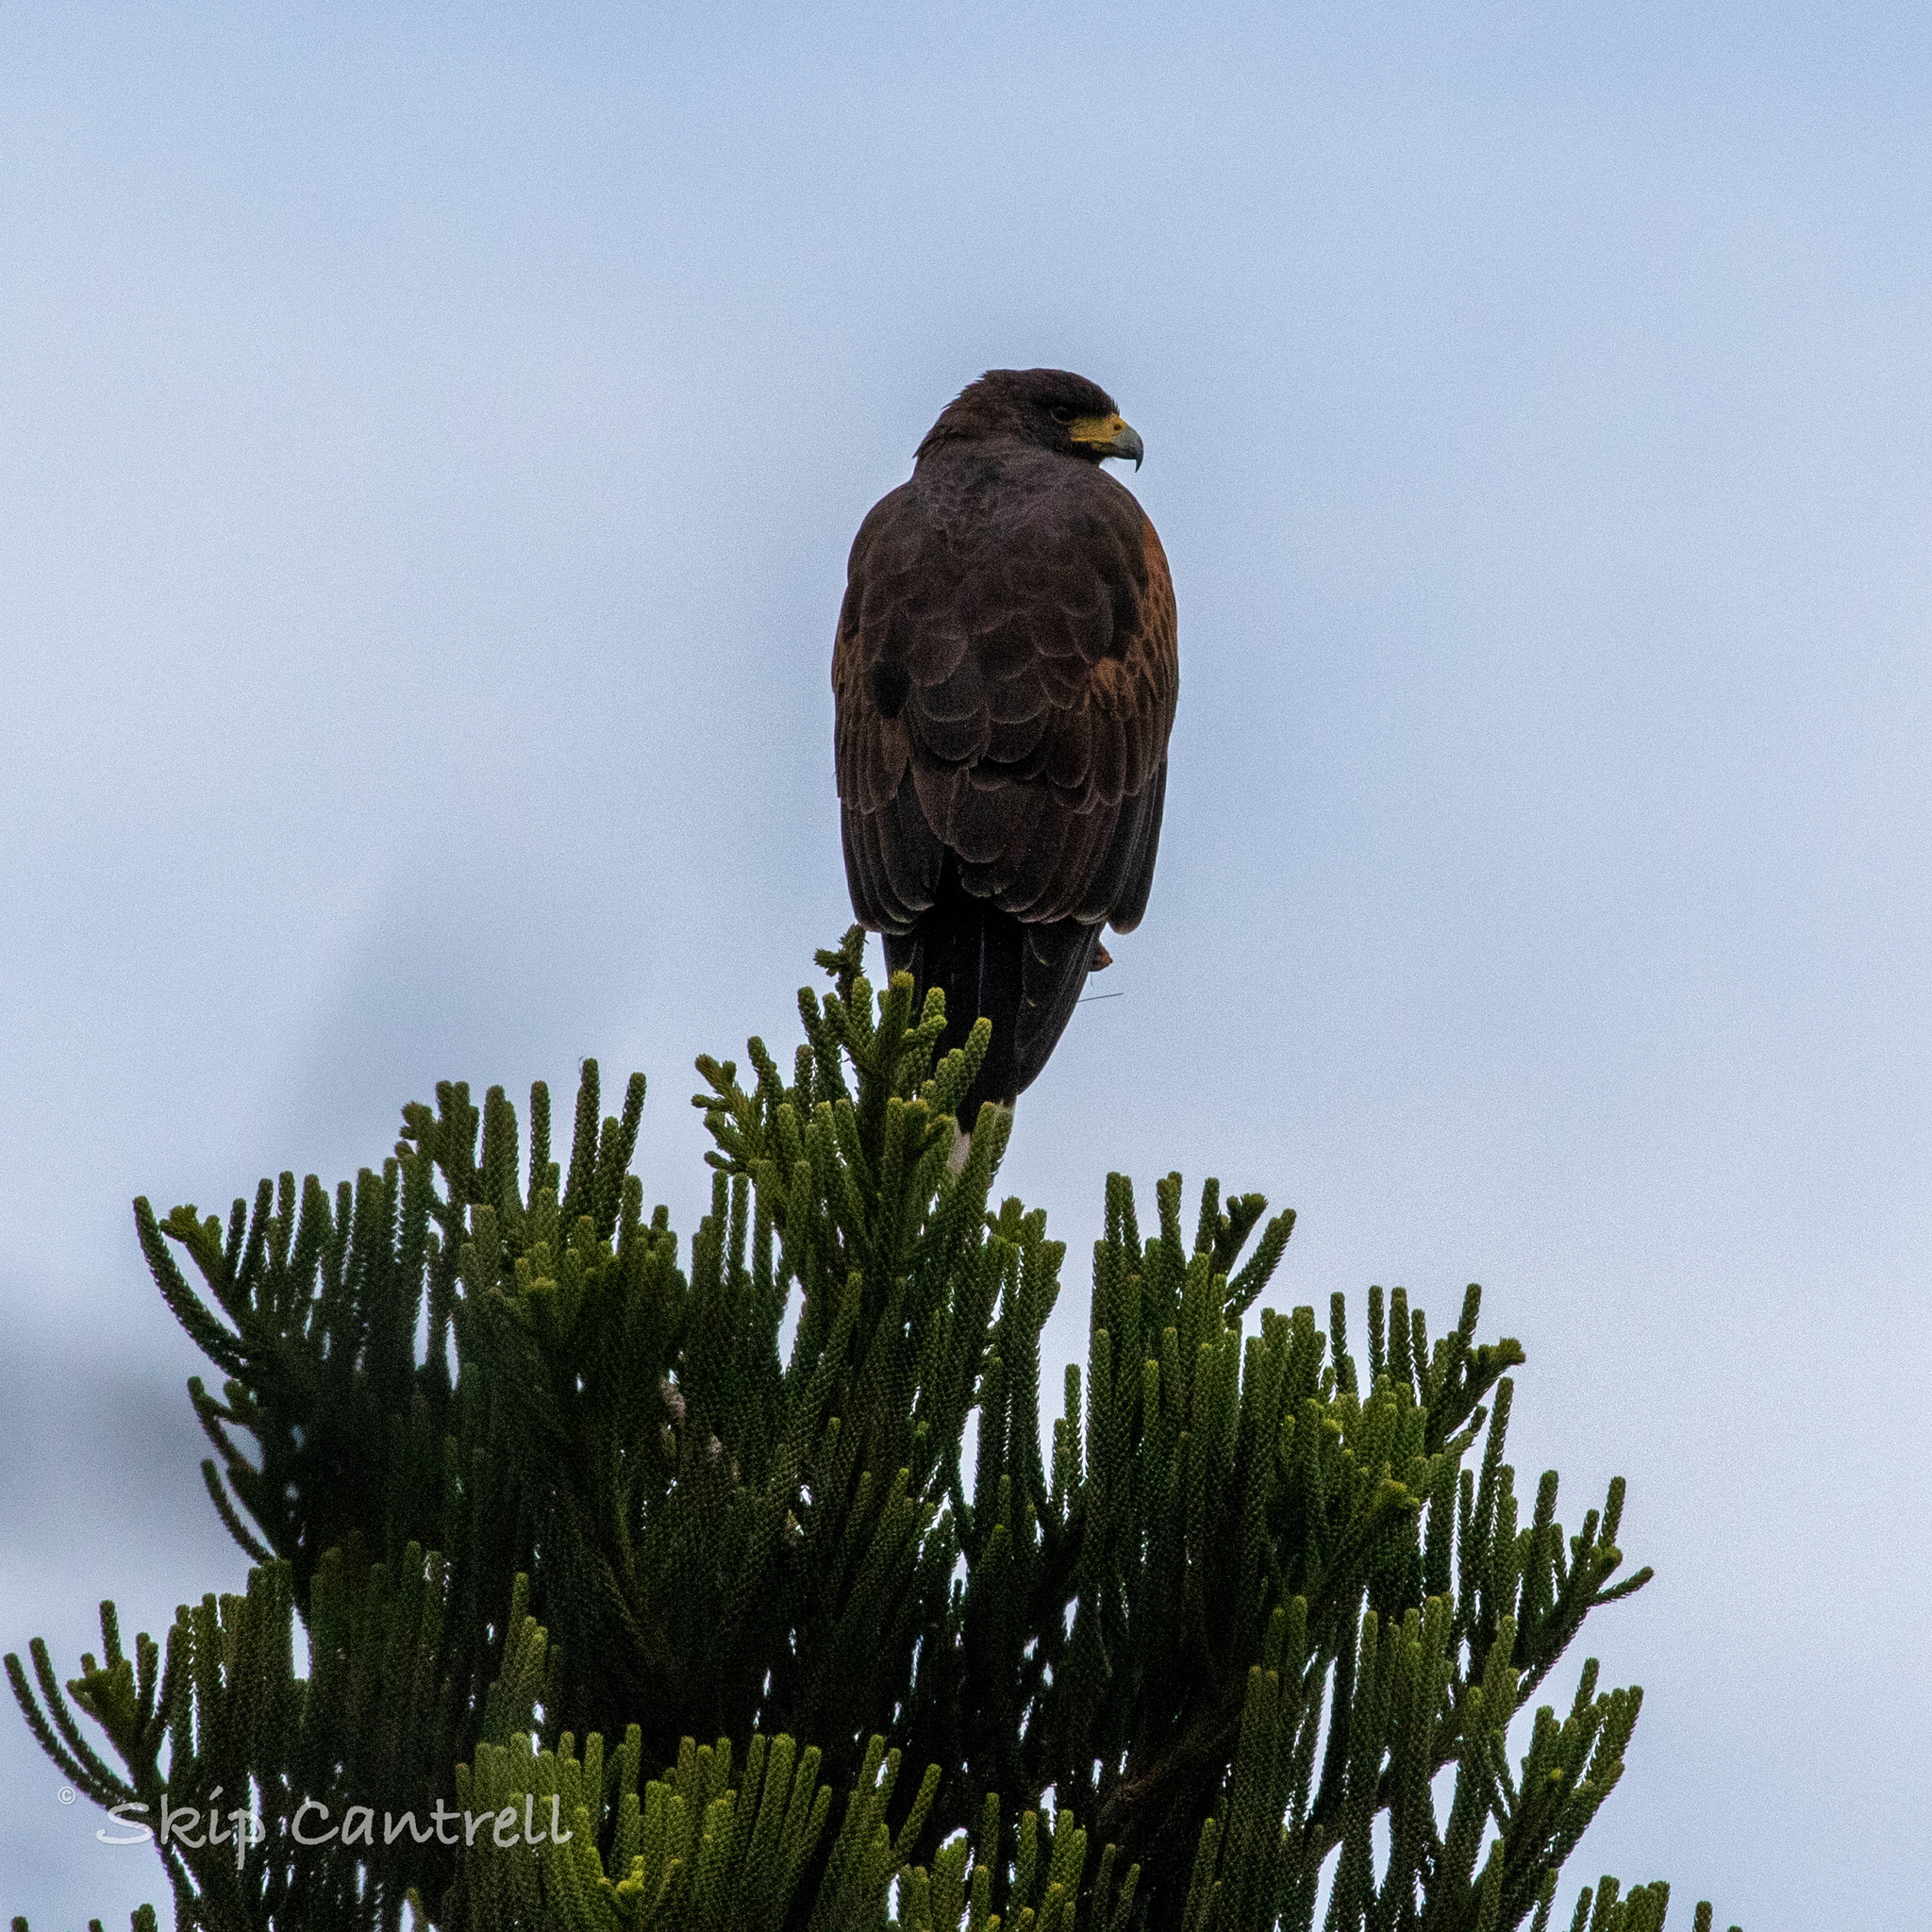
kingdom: Animalia
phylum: Chordata
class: Aves
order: Accipitriformes
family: Accipitridae
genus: Parabuteo
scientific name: Parabuteo unicinctus
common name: Harris's hawk
